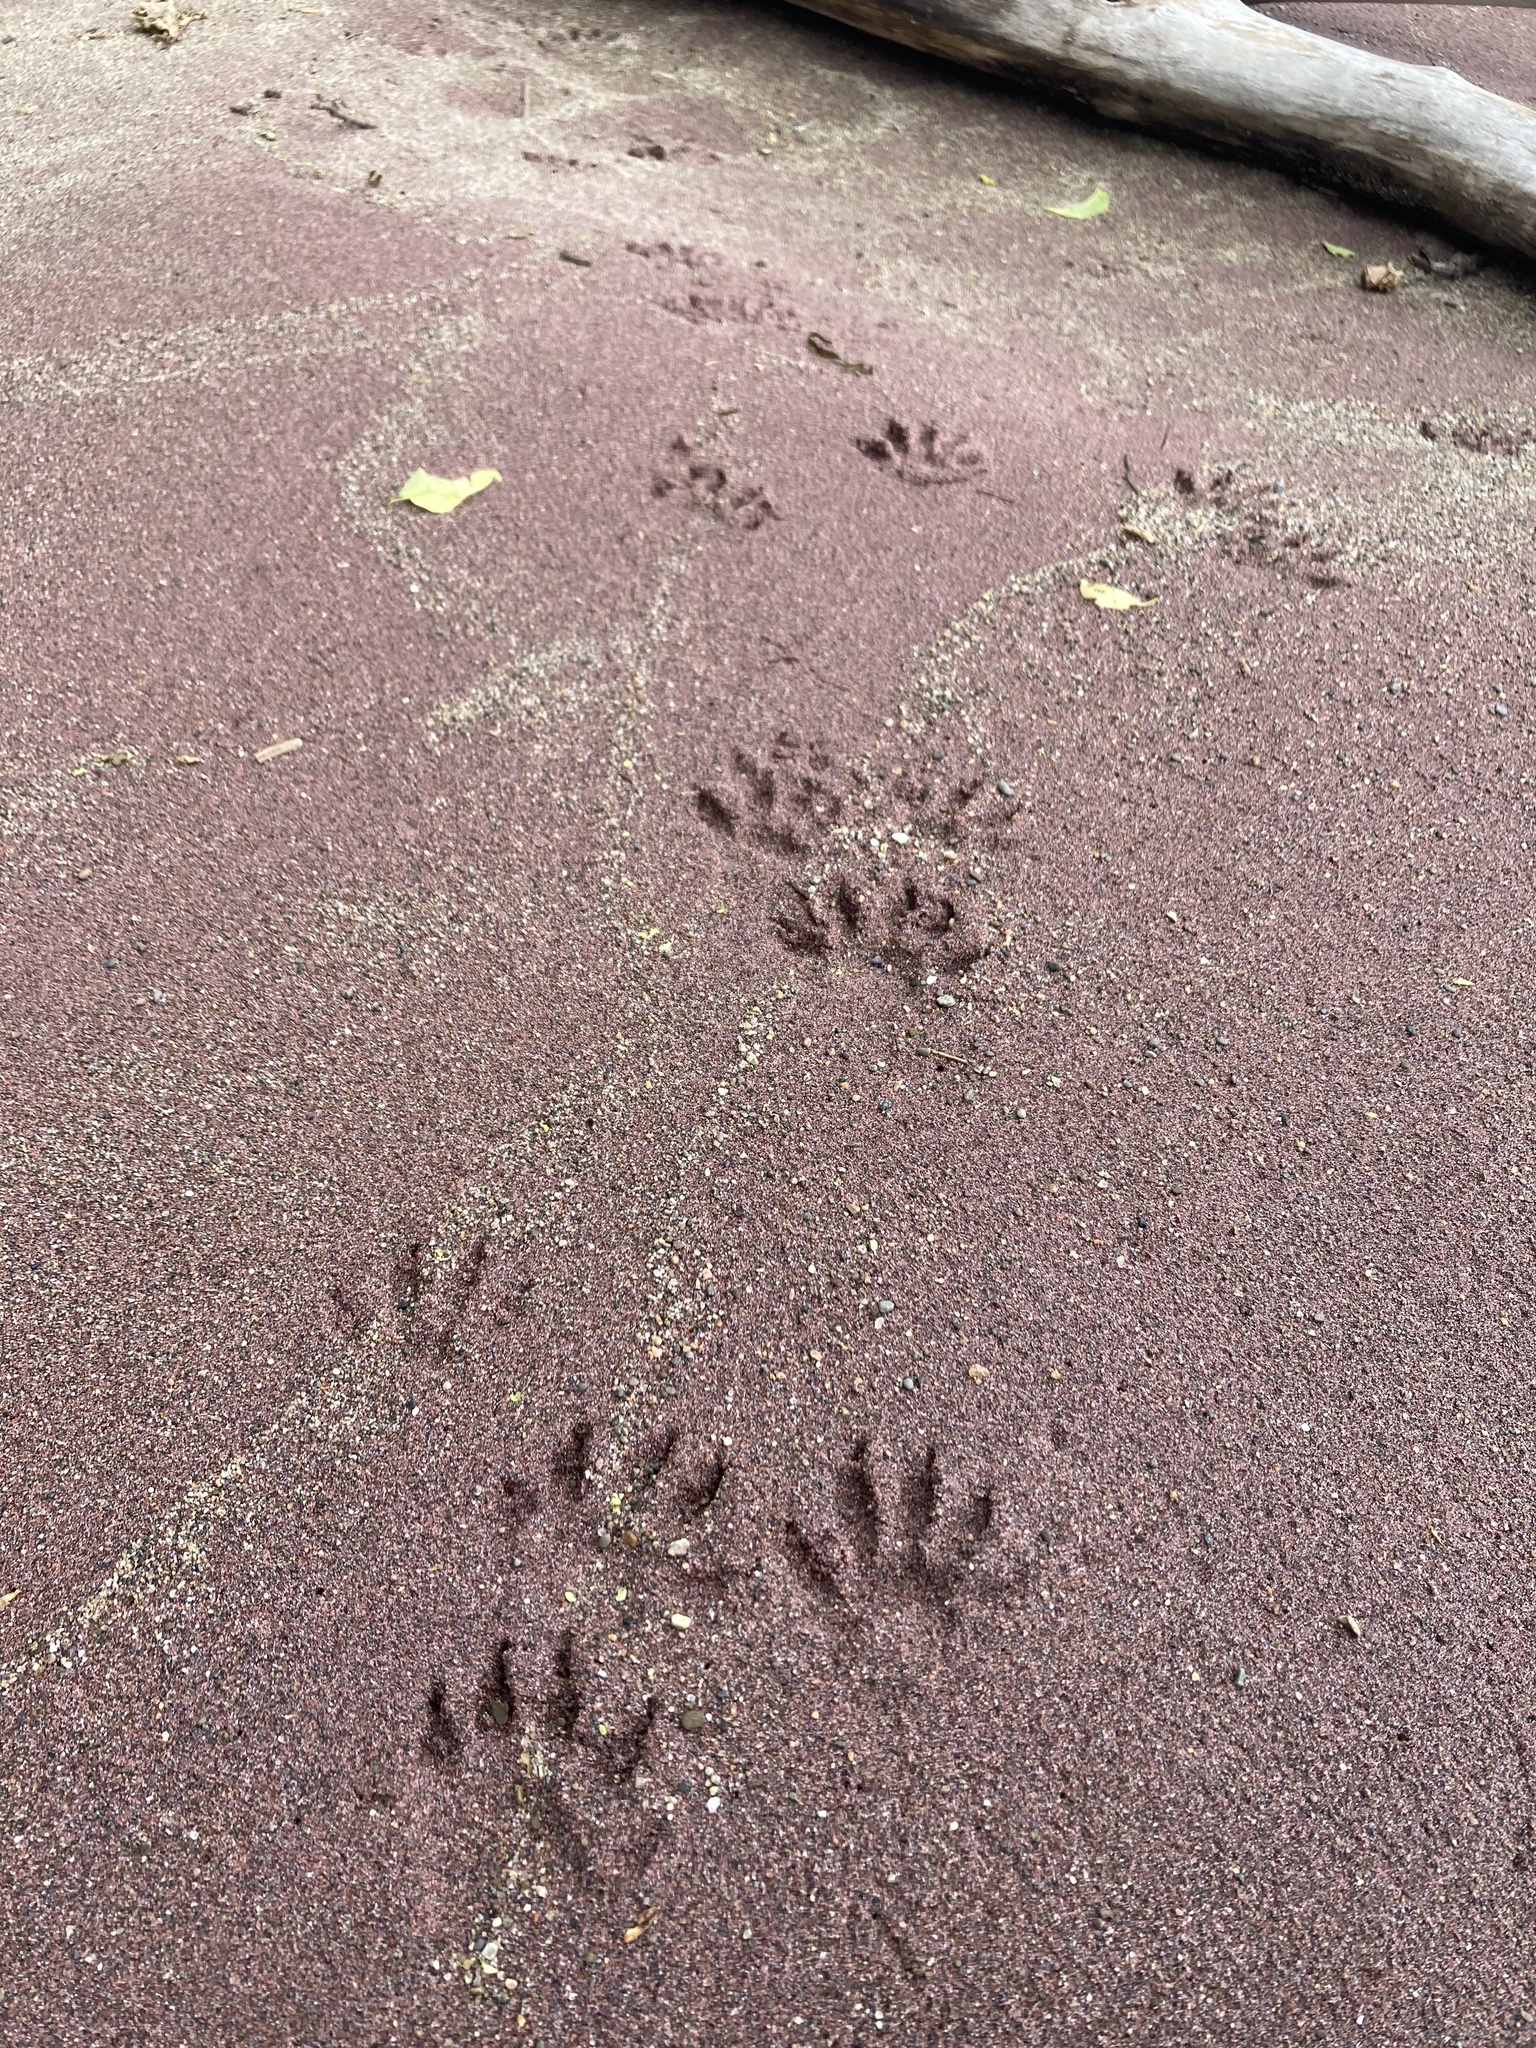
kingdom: Animalia
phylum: Chordata
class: Mammalia
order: Carnivora
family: Procyonidae
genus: Procyon
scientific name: Procyon lotor
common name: Raccoon
